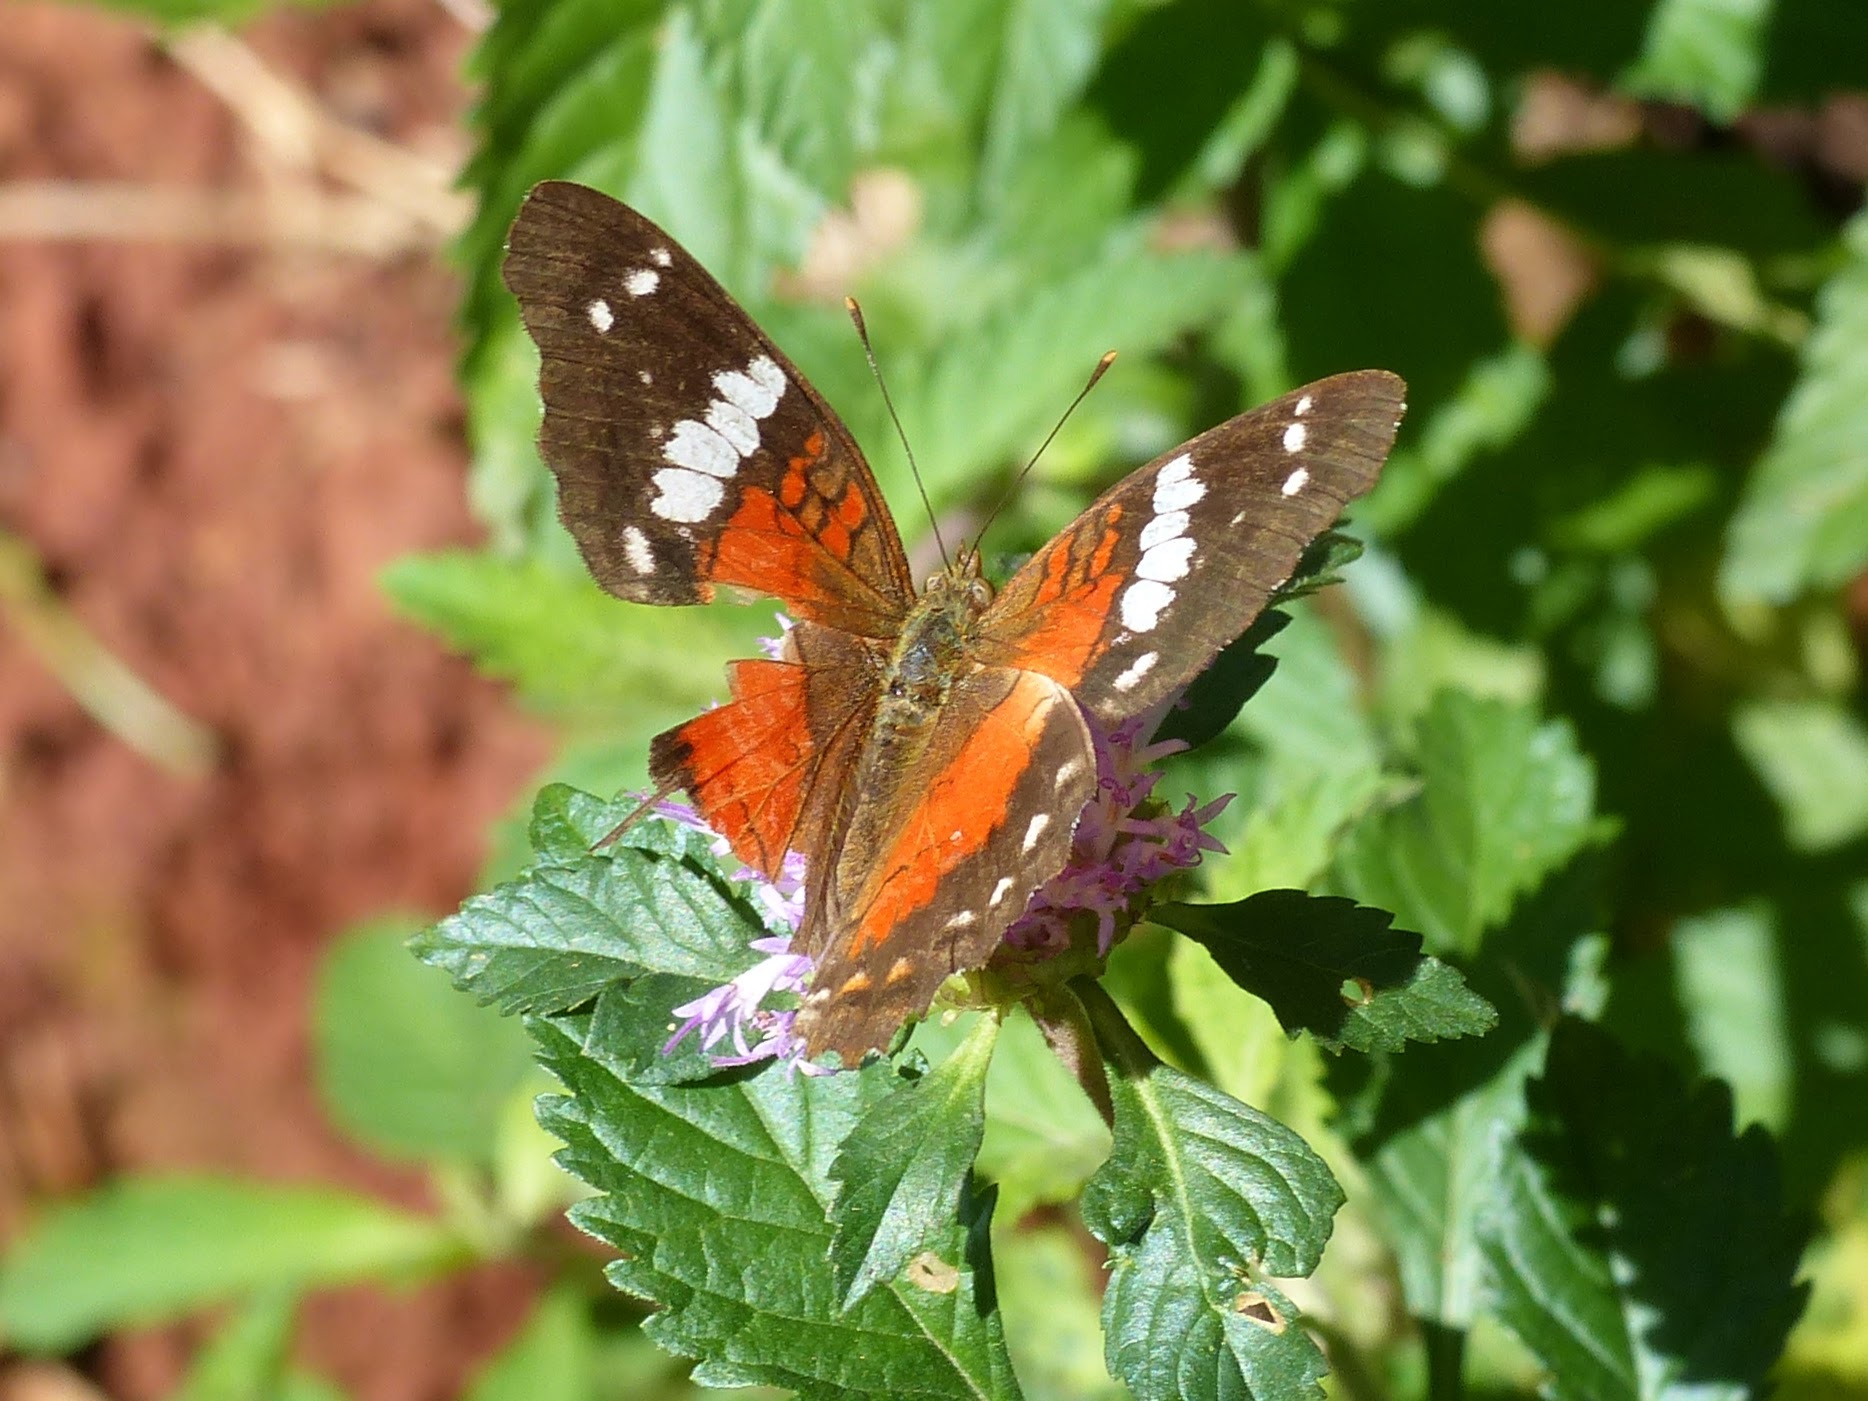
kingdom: Animalia
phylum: Arthropoda
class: Insecta
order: Lepidoptera
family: Nymphalidae
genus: Anartia
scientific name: Anartia amathea
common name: Red peacock
